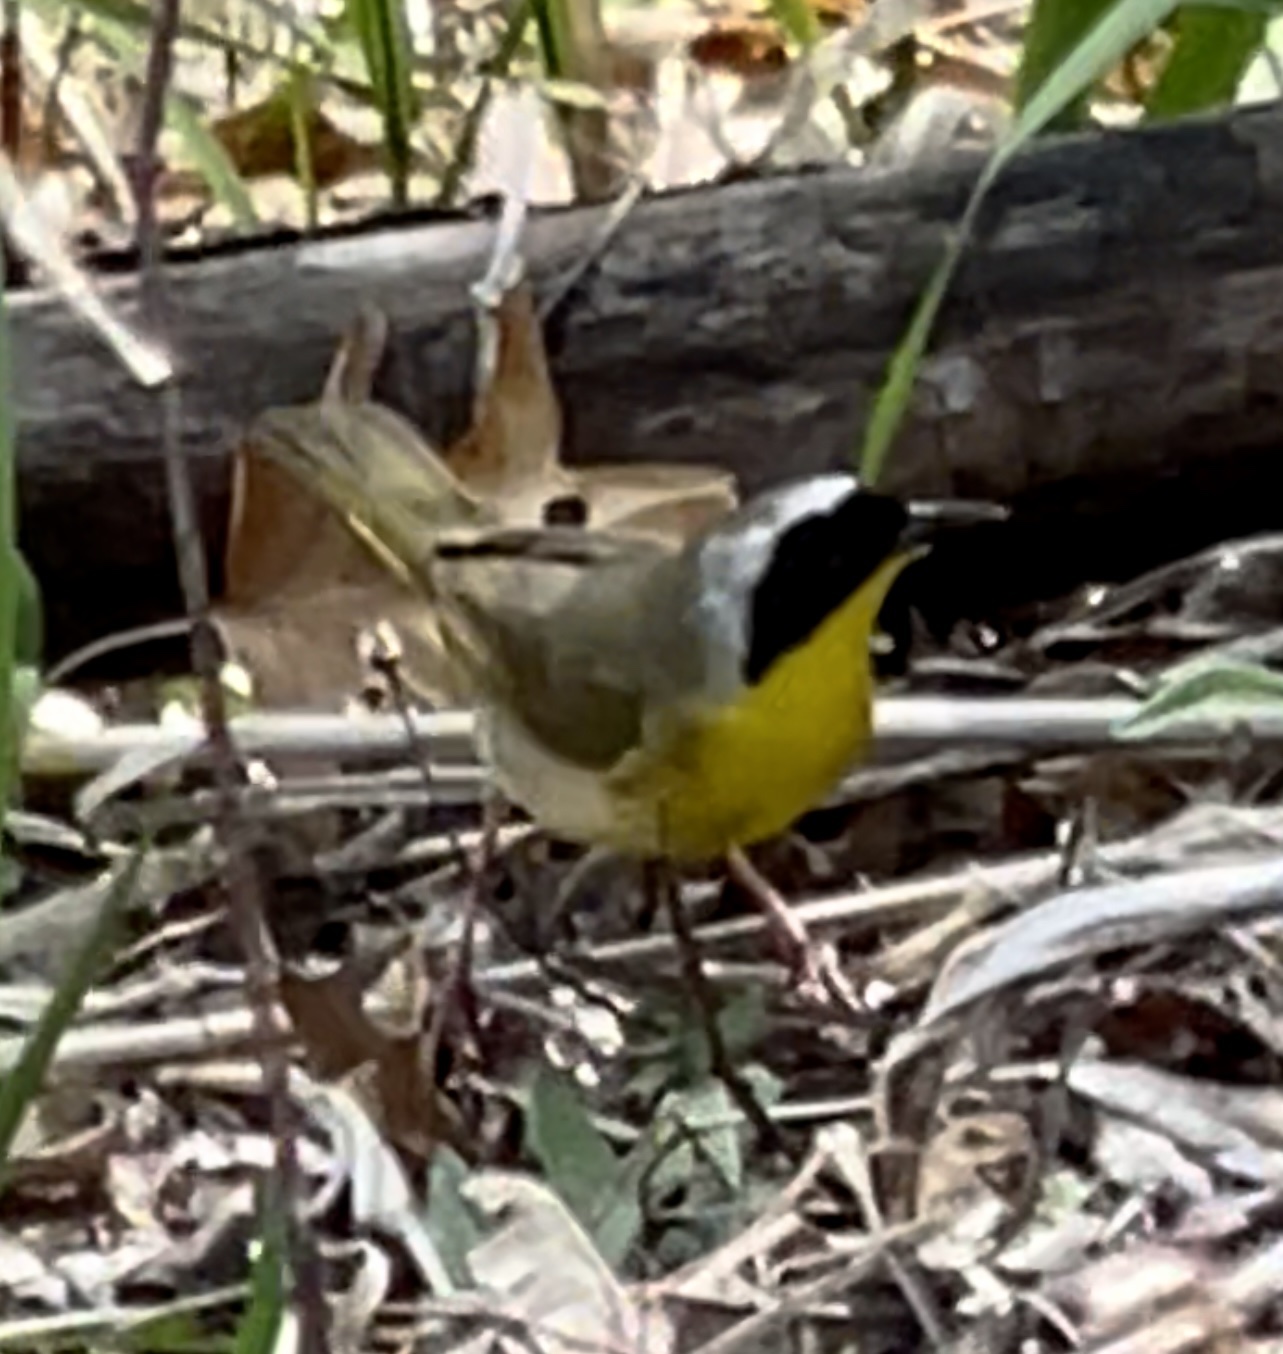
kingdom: Animalia
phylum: Chordata
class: Aves
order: Passeriformes
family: Parulidae
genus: Geothlypis
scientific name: Geothlypis trichas
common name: Common yellowthroat
